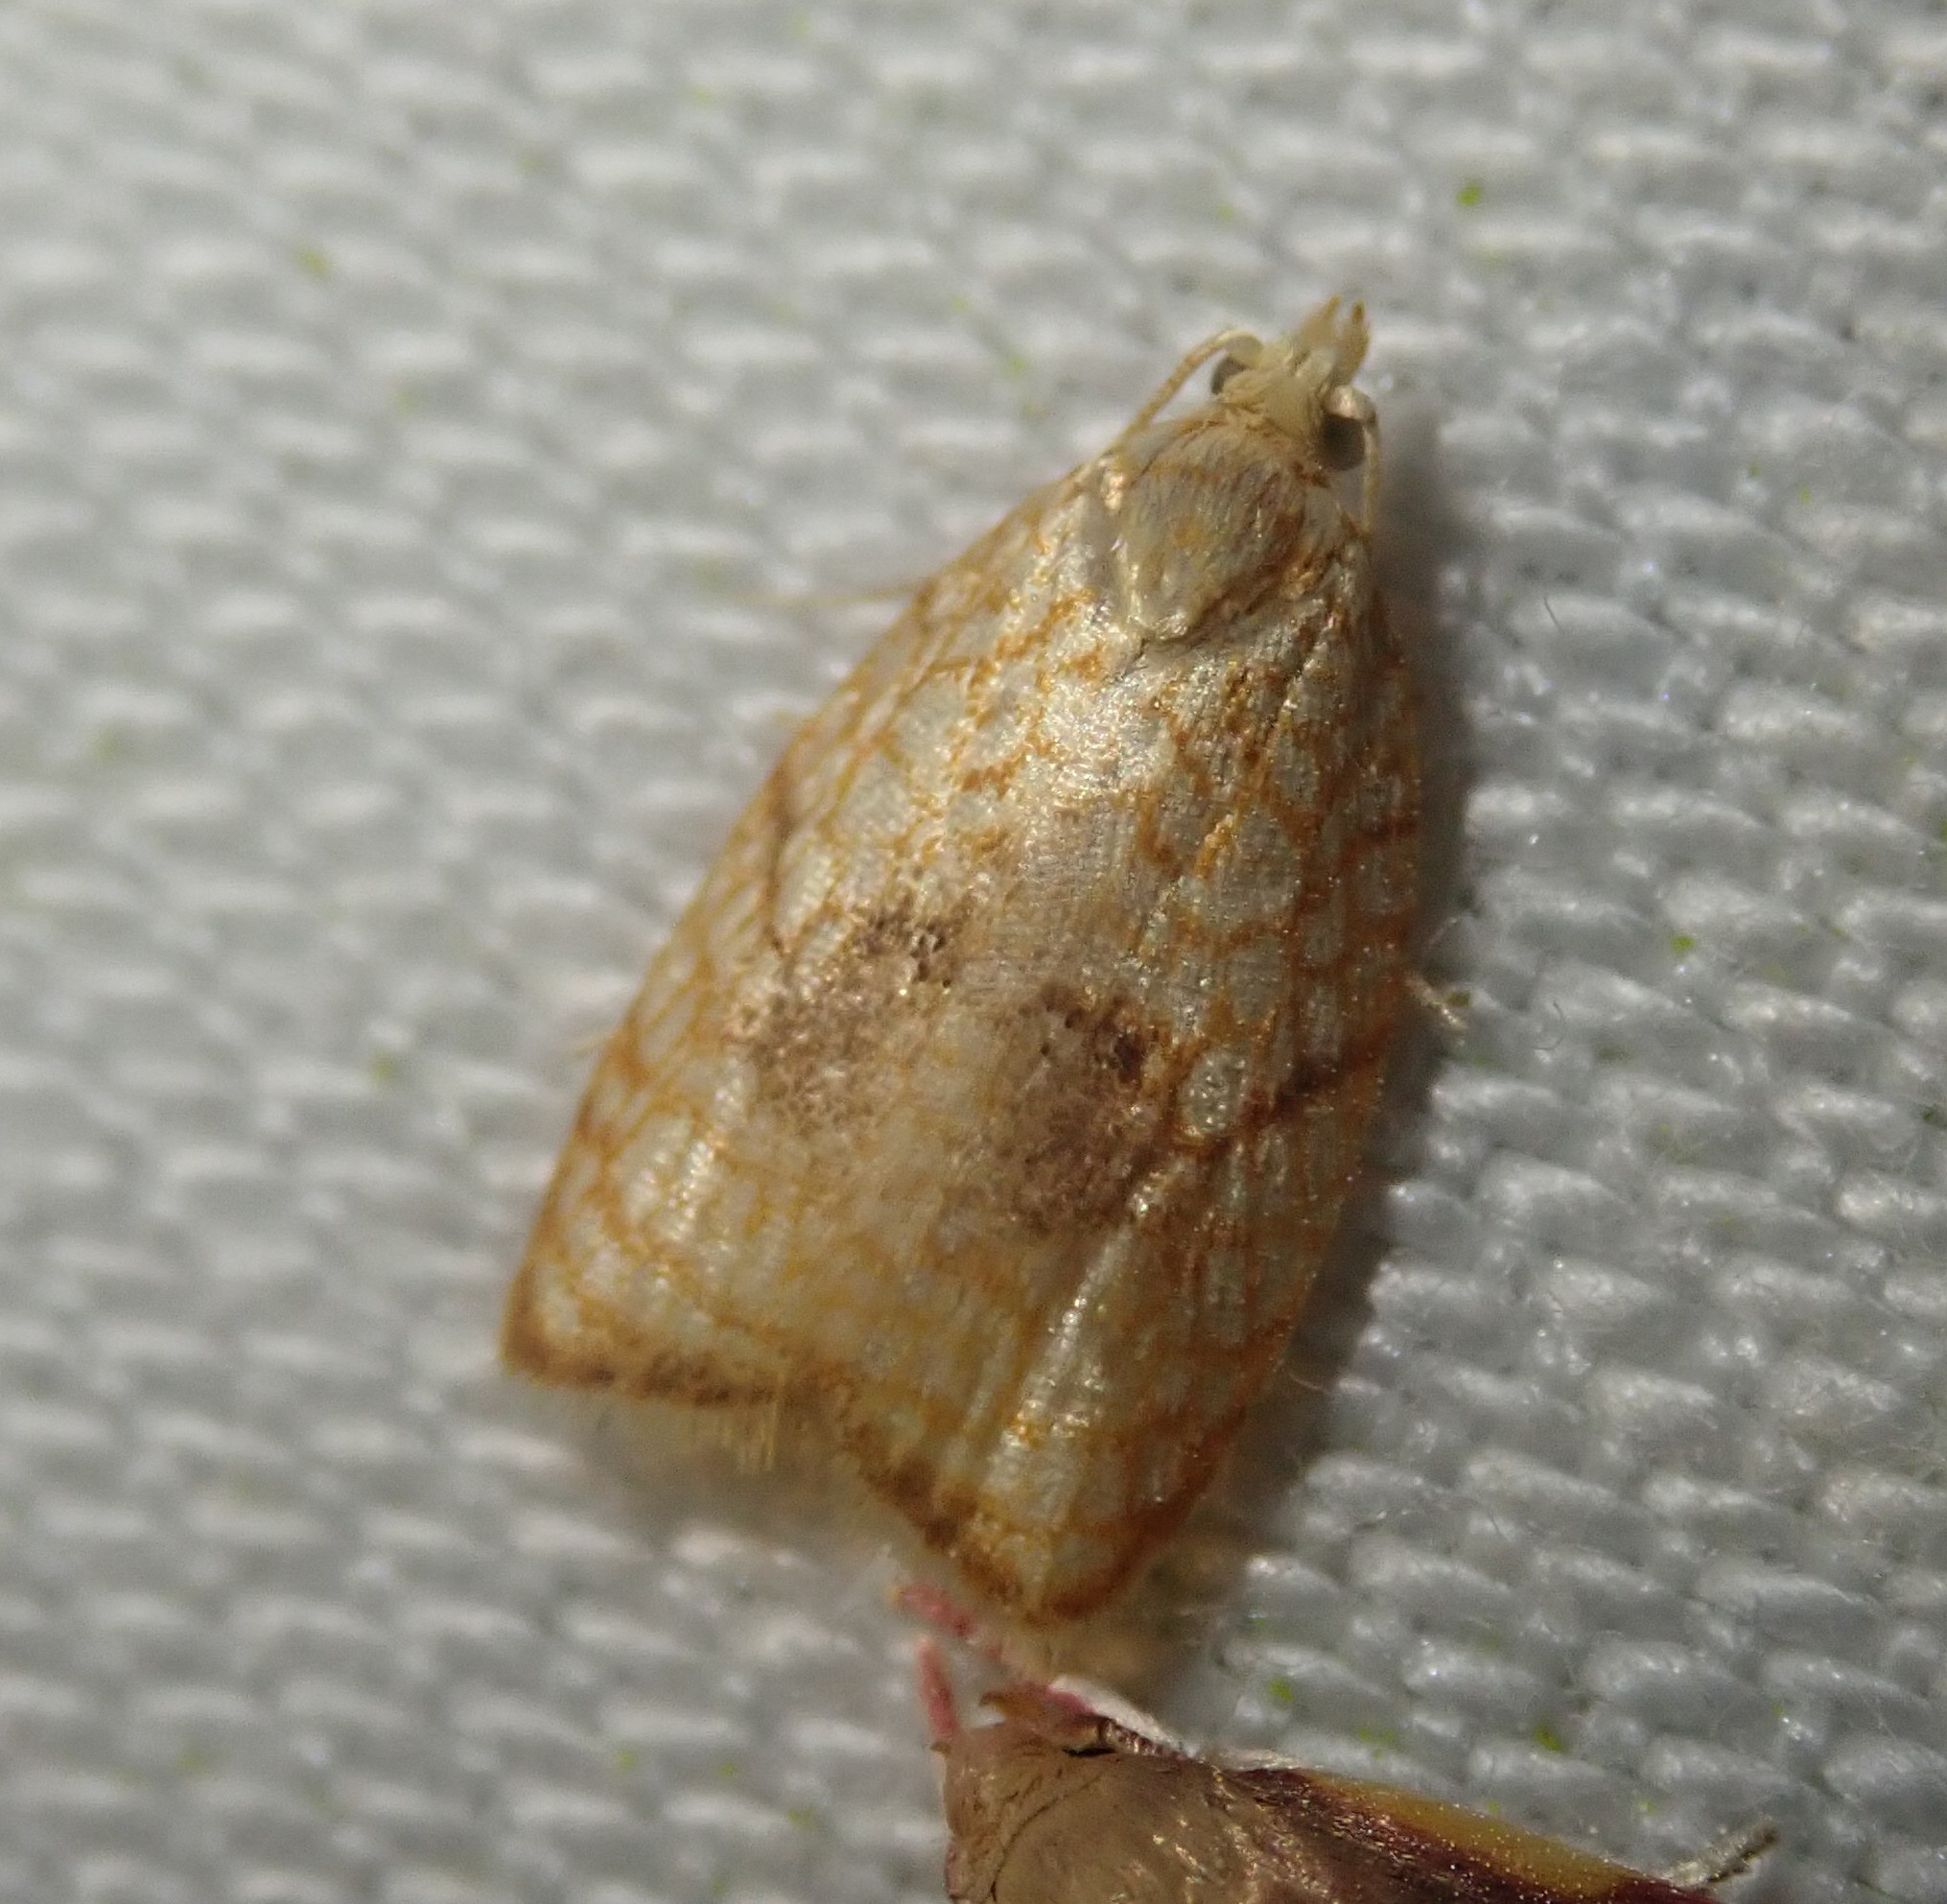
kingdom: Animalia
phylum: Arthropoda
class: Insecta
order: Lepidoptera
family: Tortricidae
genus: Acleris
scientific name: Acleris forsskaleana
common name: Maple button
